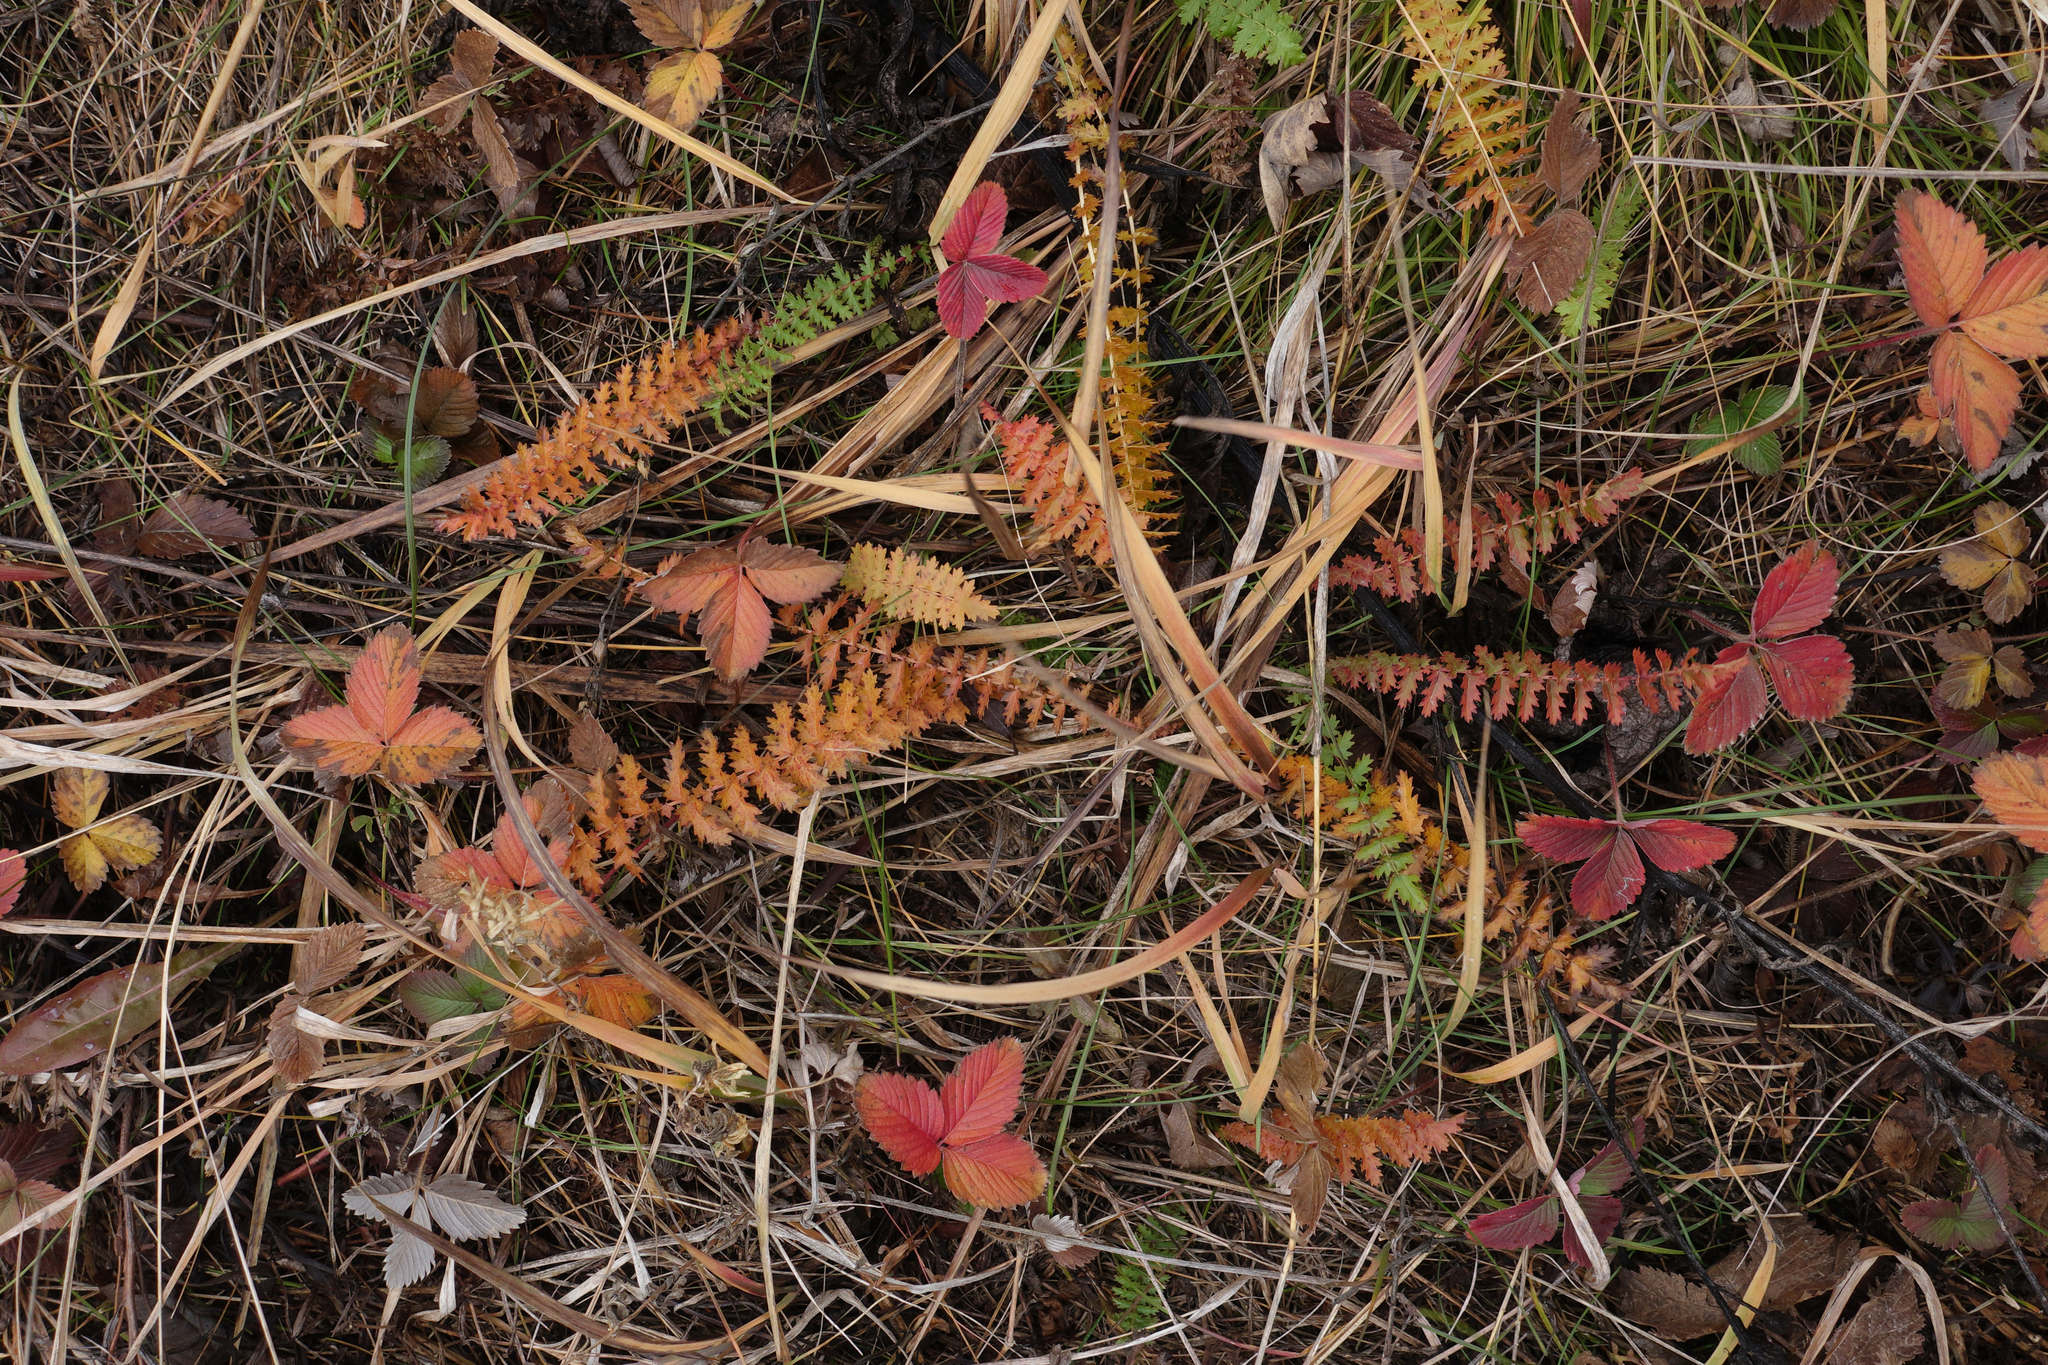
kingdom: Plantae
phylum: Tracheophyta
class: Magnoliopsida
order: Rosales
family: Rosaceae
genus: Fragaria
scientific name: Fragaria viridis
